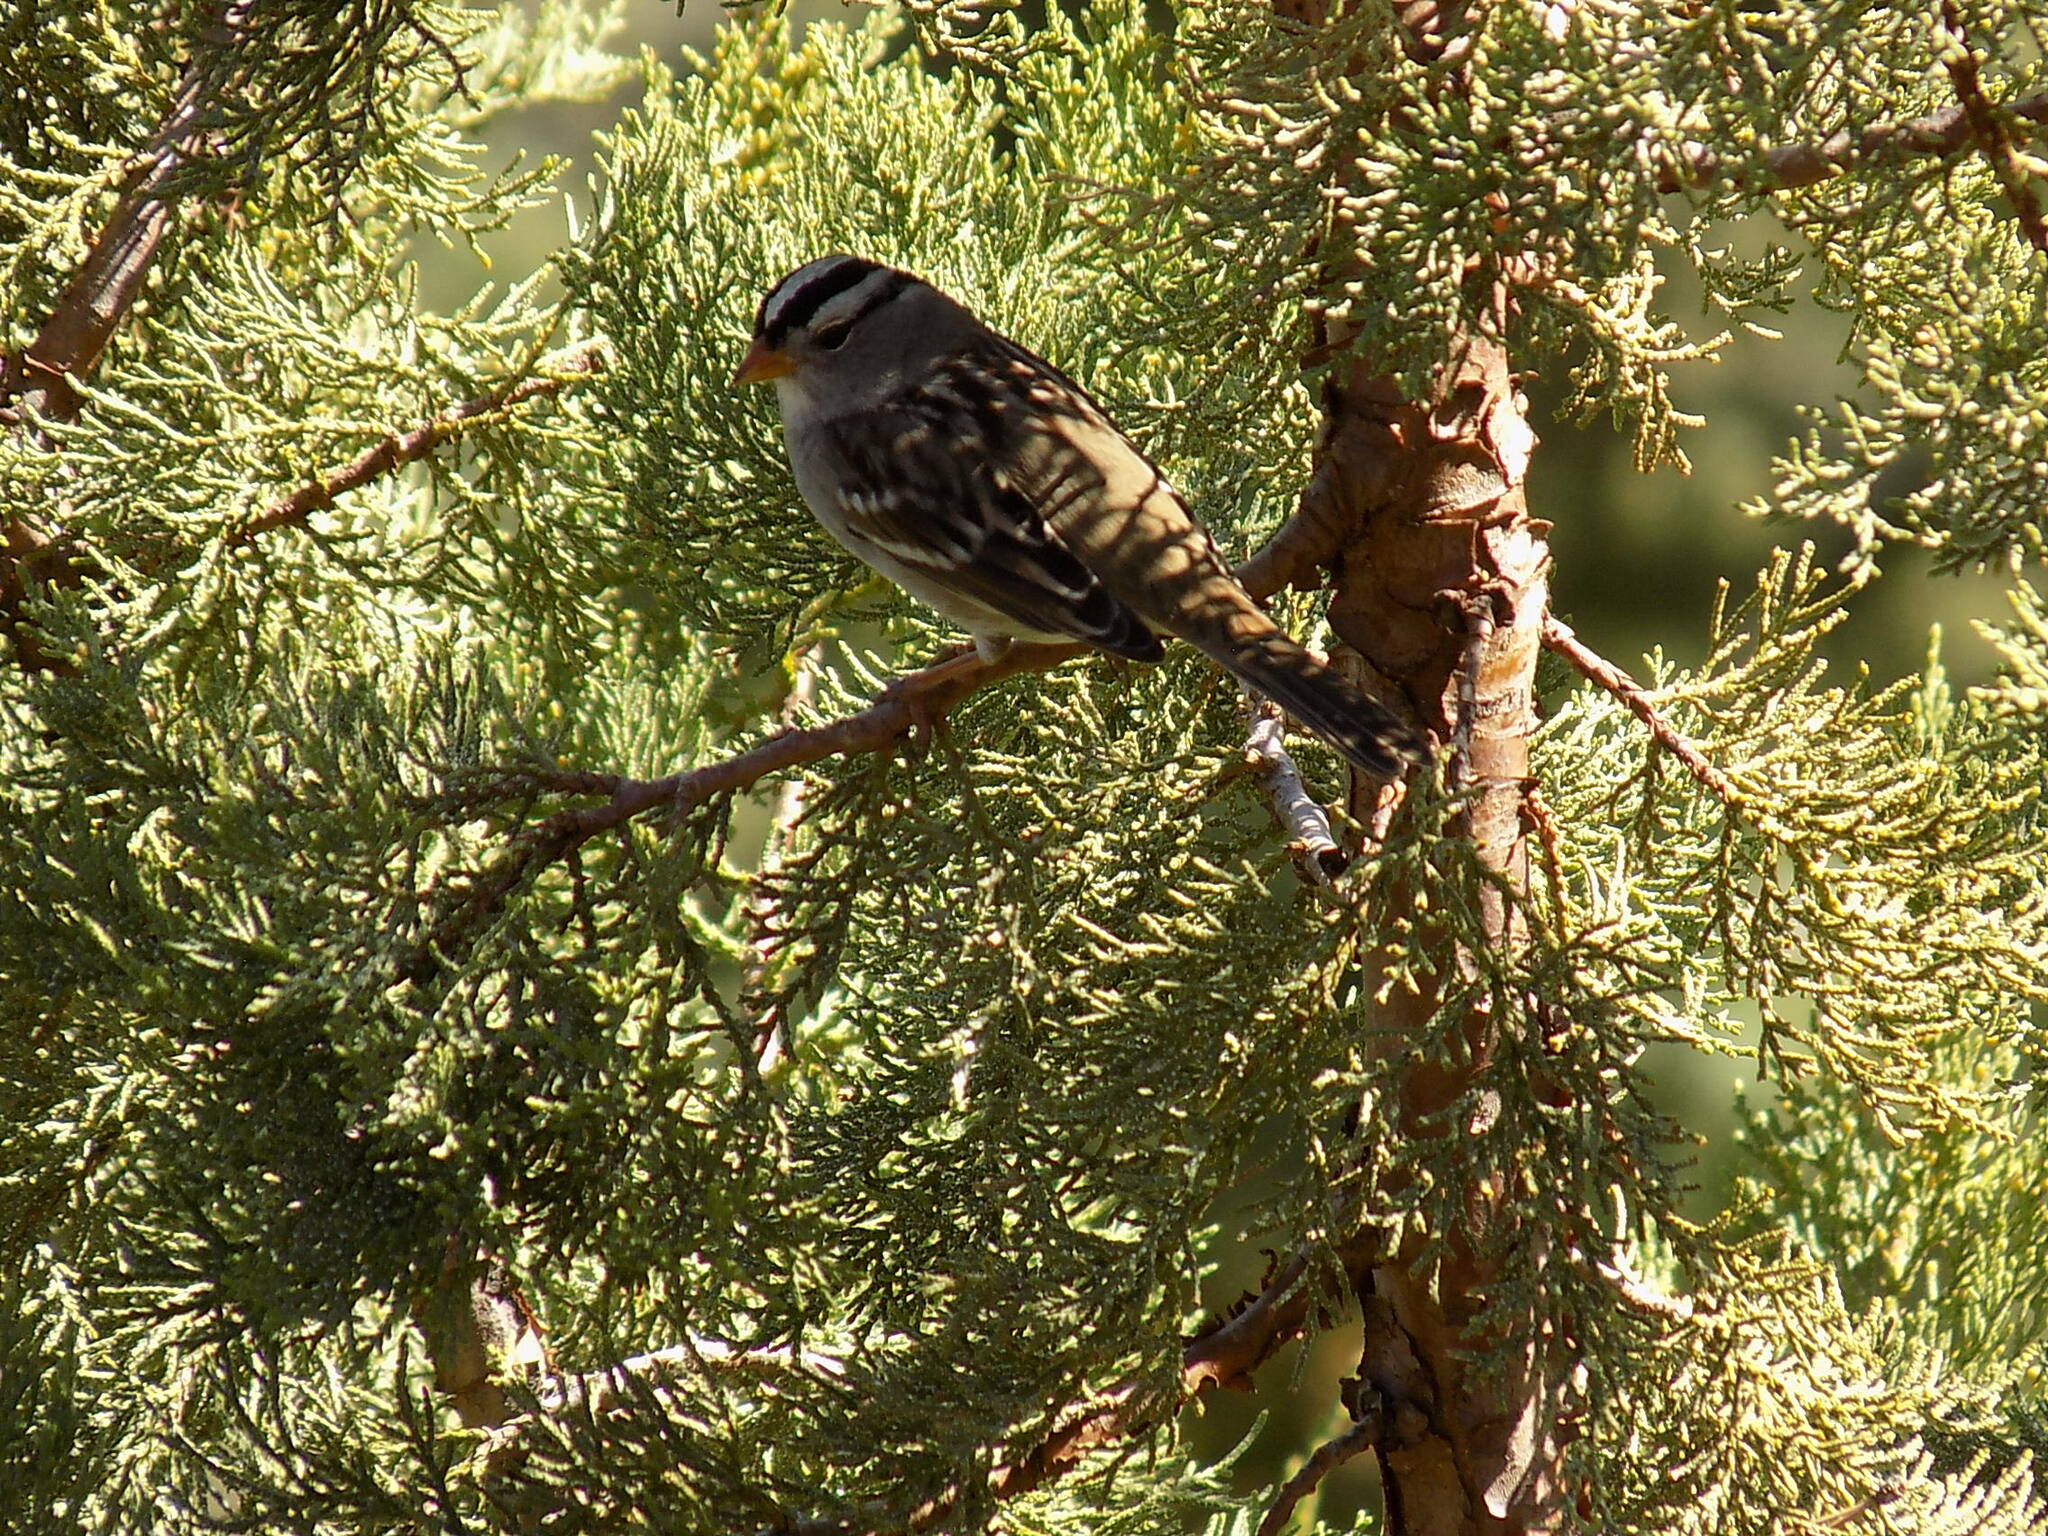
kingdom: Animalia
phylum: Chordata
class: Aves
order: Passeriformes
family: Passerellidae
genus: Zonotrichia
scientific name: Zonotrichia leucophrys
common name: White-crowned sparrow
